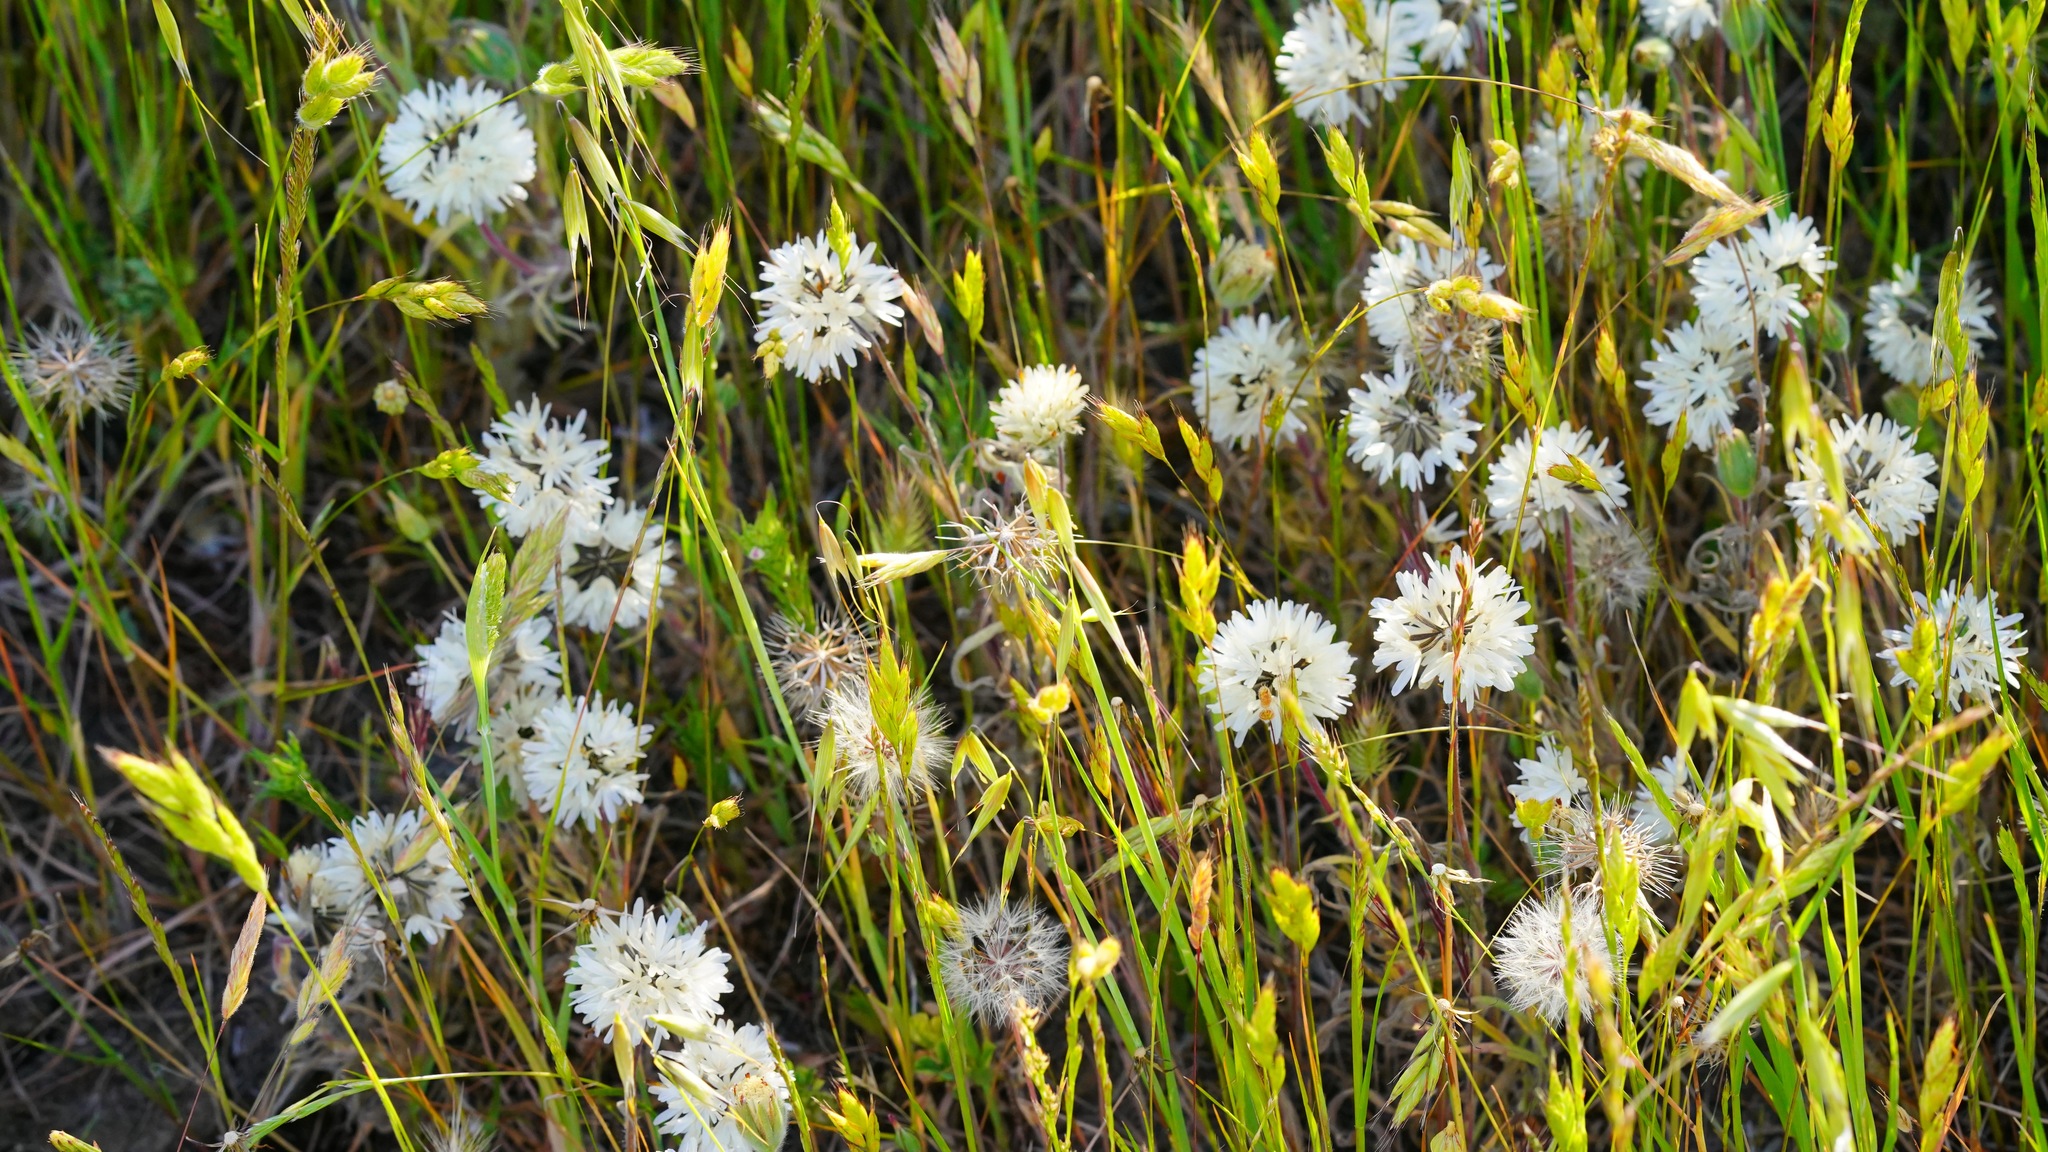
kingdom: Plantae
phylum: Tracheophyta
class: Magnoliopsida
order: Asterales
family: Asteraceae
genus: Achyrachaena
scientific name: Achyrachaena mollis
